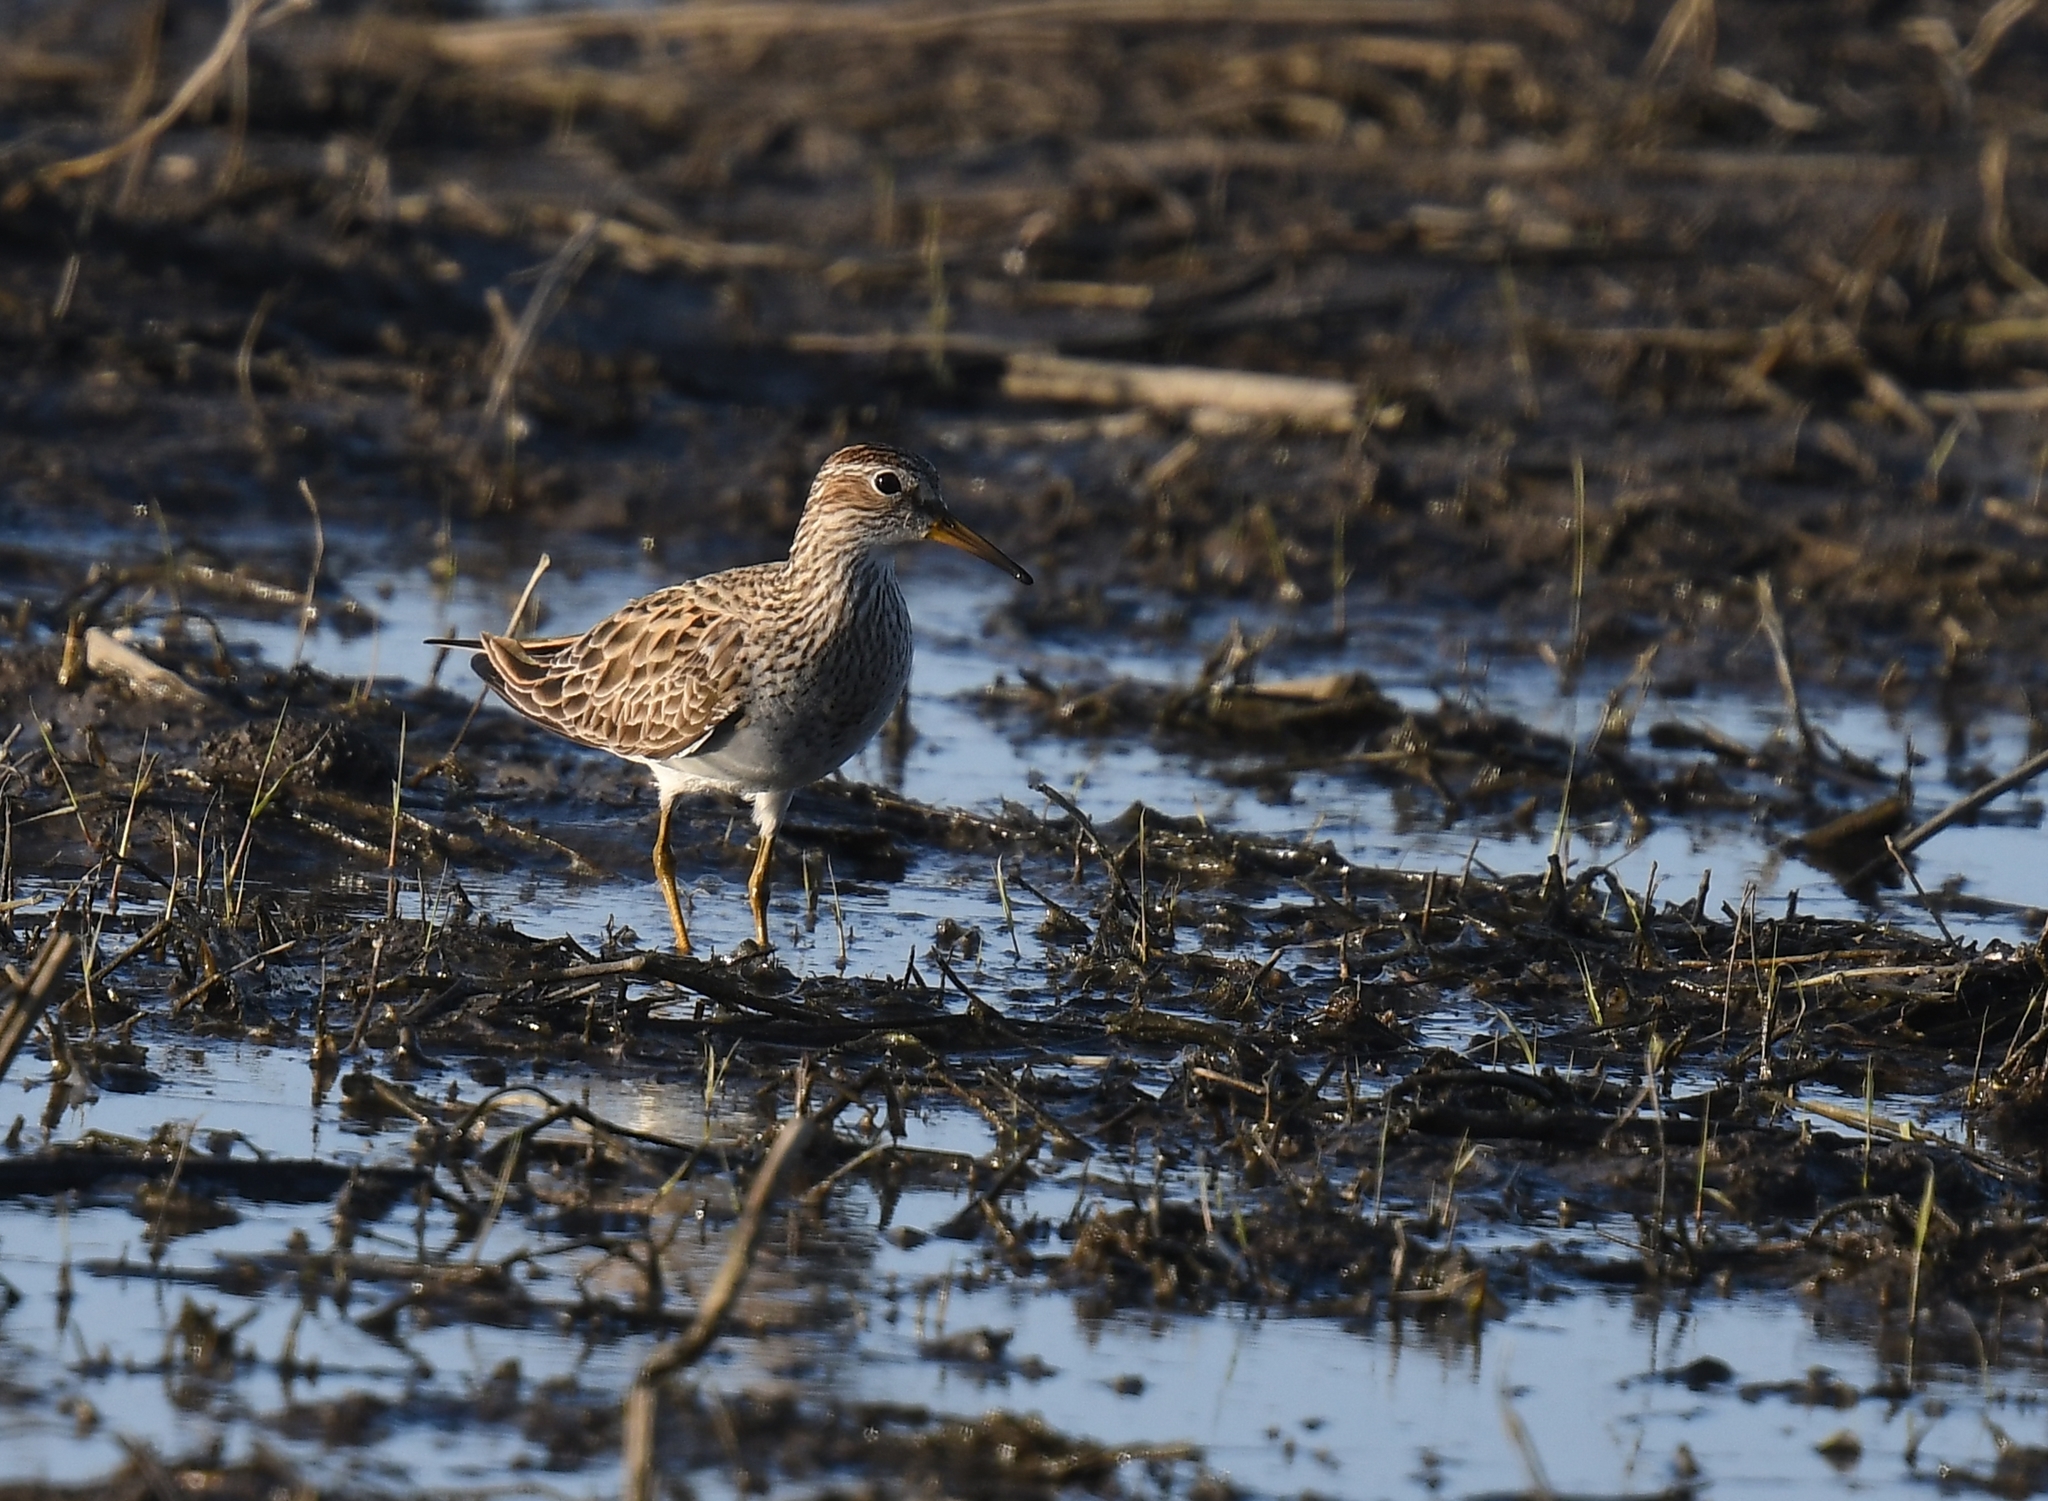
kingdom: Animalia
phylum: Chordata
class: Aves
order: Charadriiformes
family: Scolopacidae
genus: Calidris
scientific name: Calidris melanotos
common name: Pectoral sandpiper
